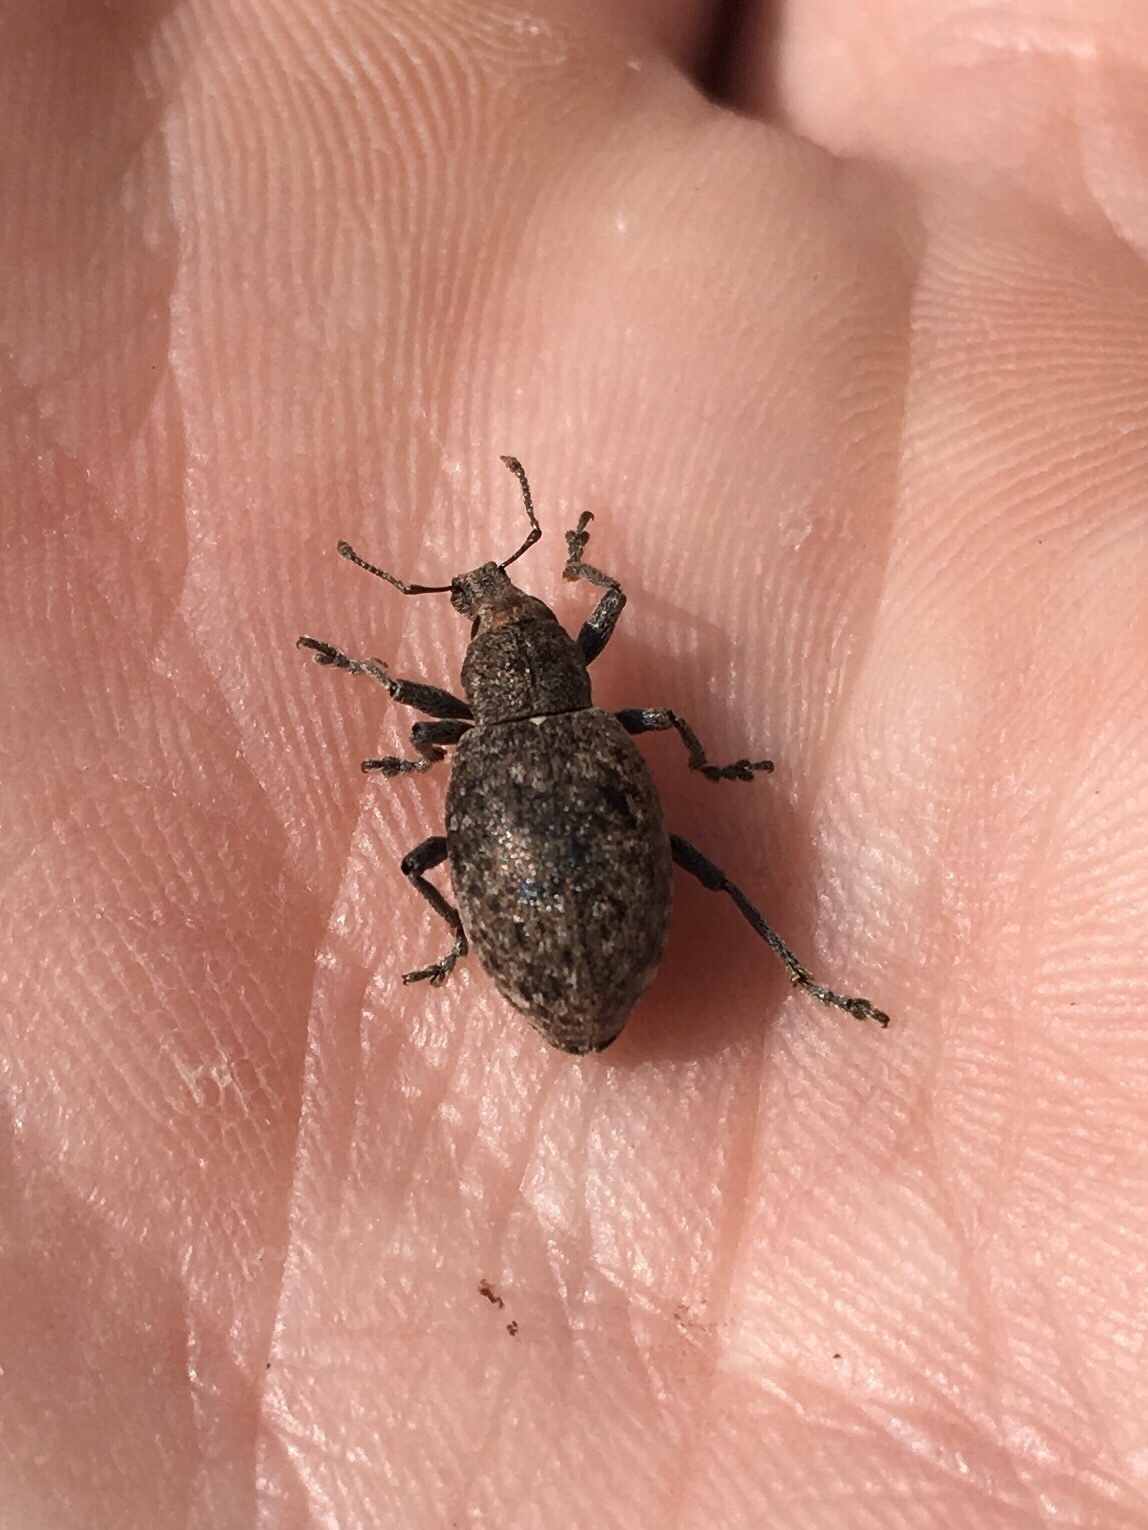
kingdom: Animalia
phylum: Arthropoda
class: Insecta
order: Coleoptera
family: Curculionidae
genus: Trichalophus
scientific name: Trichalophus alternatus
